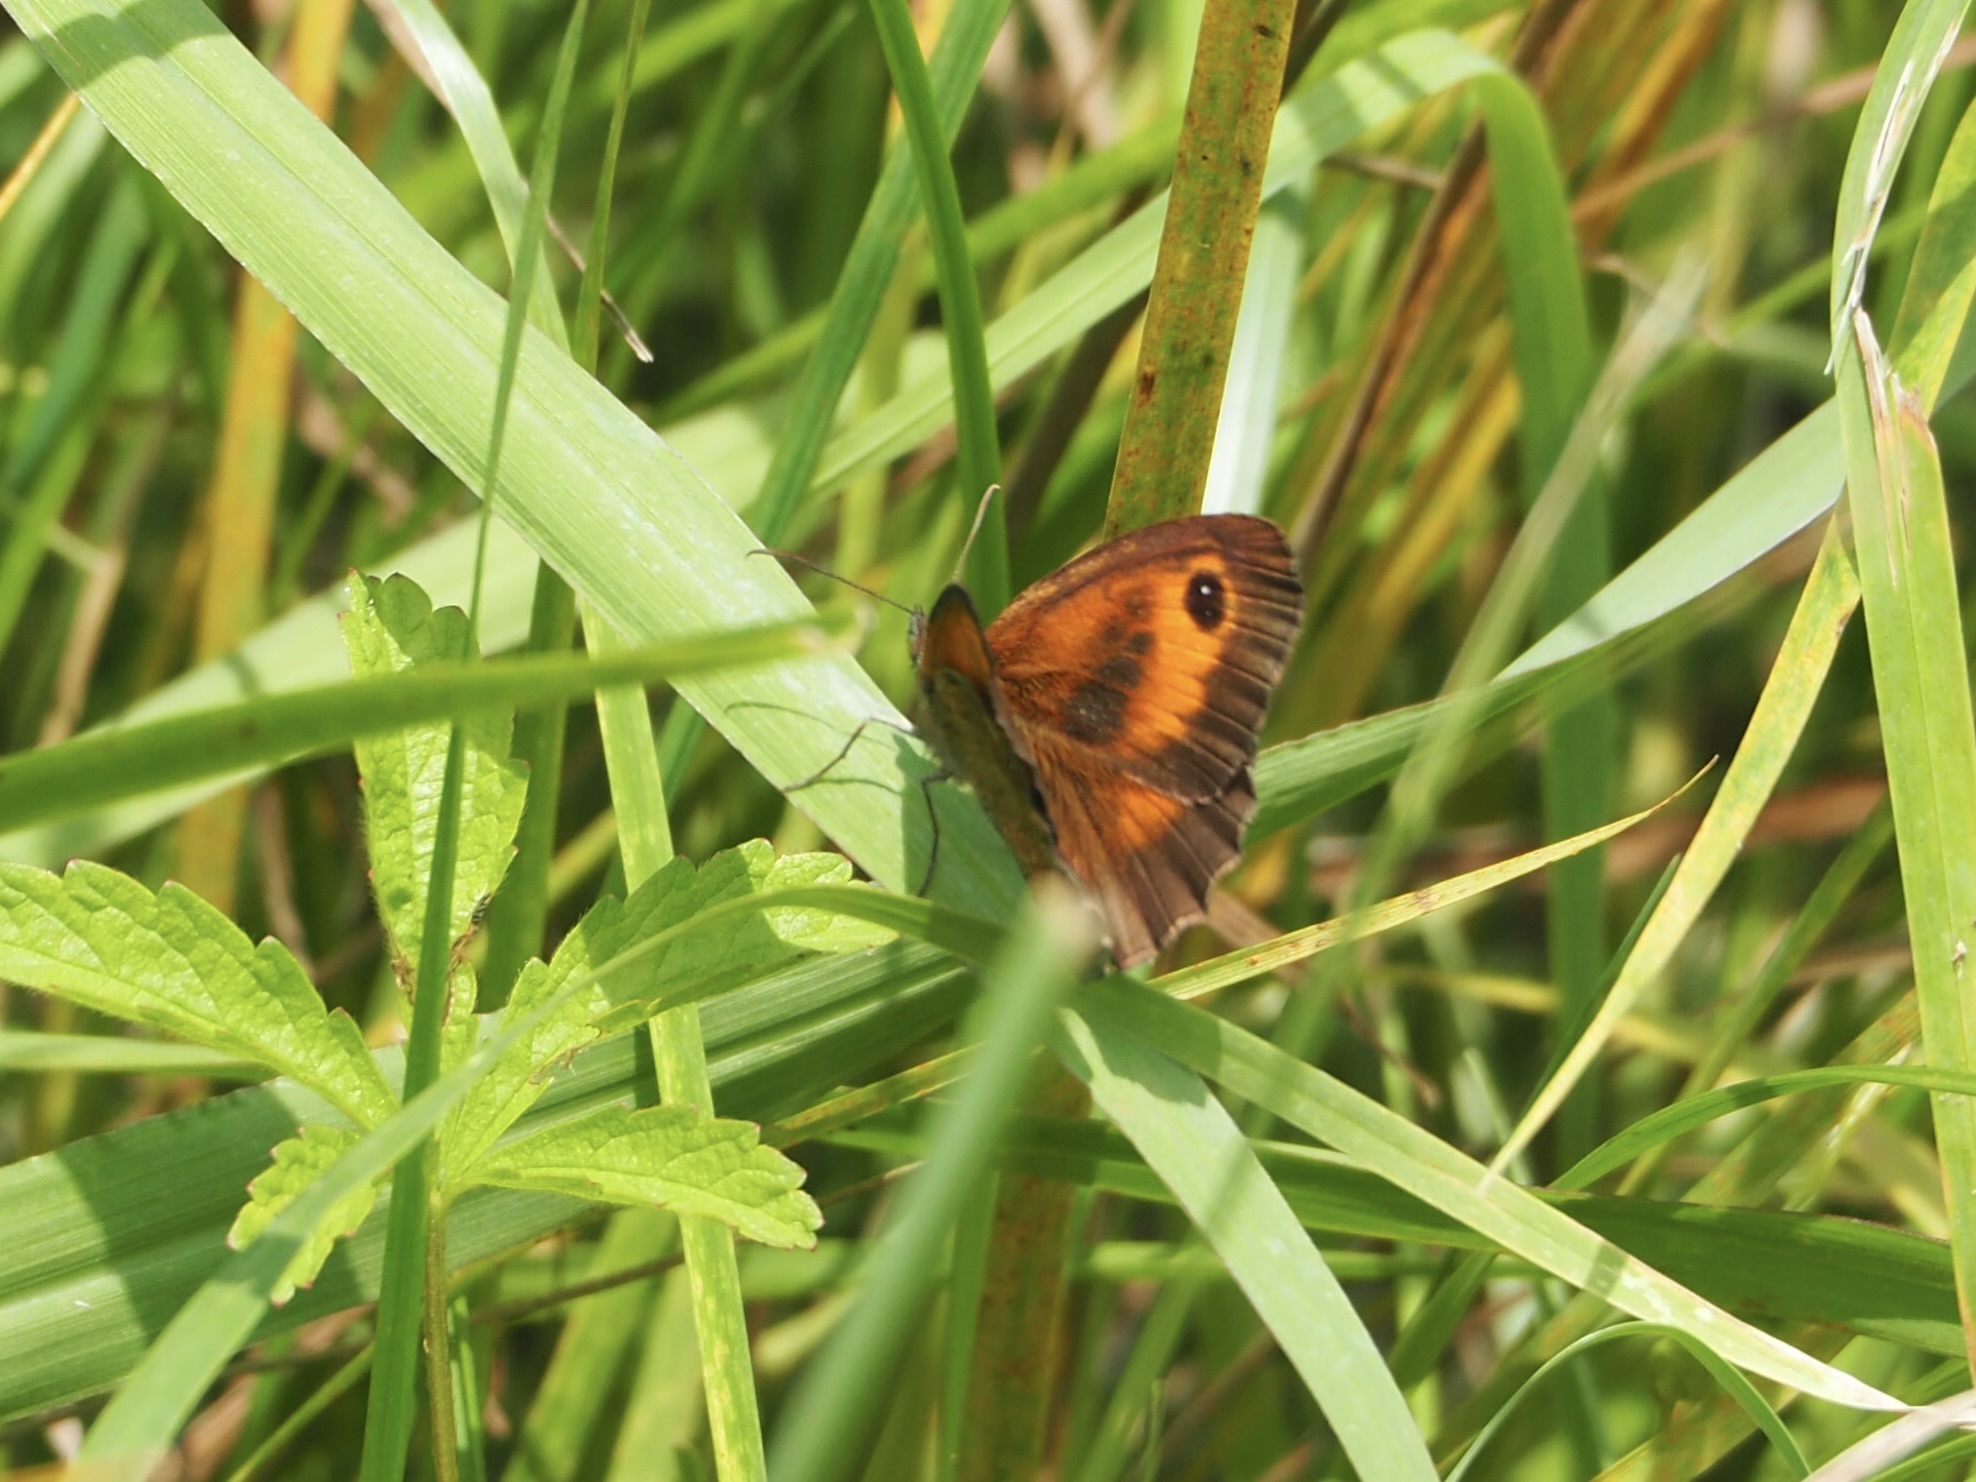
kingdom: Animalia
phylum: Arthropoda
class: Insecta
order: Lepidoptera
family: Nymphalidae
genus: Pyronia
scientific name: Pyronia tithonus
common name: Gatekeeper
